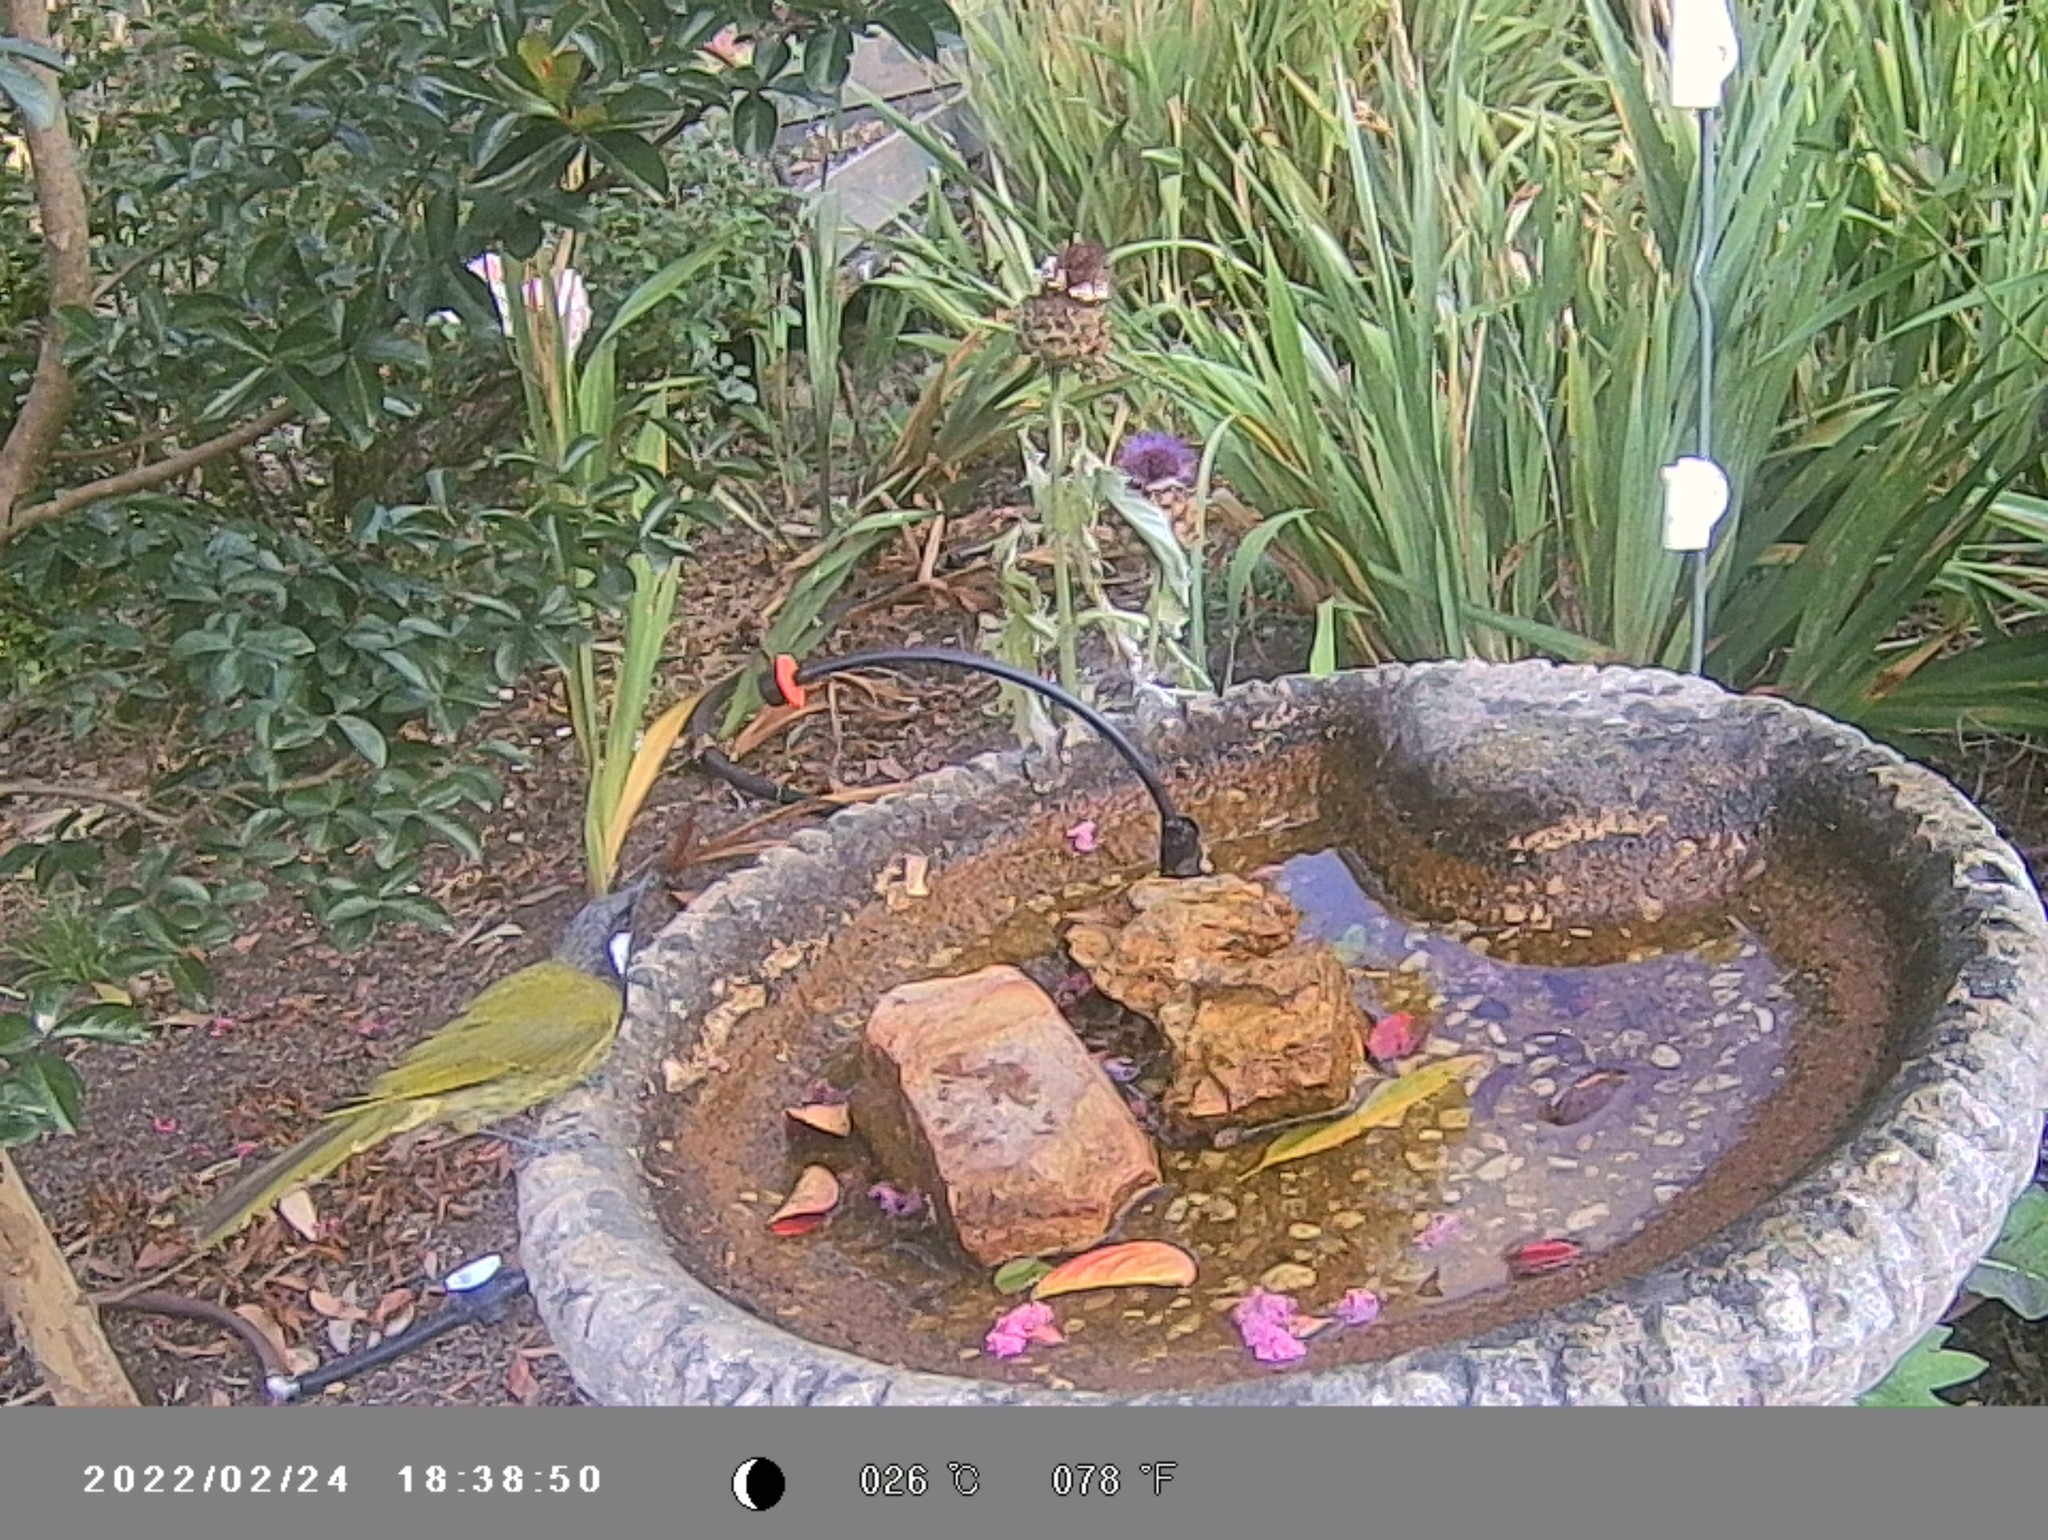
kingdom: Animalia
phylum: Chordata
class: Aves
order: Passeriformes
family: Meliphagidae
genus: Nesoptilotis
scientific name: Nesoptilotis leucotis
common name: White-eared honeyeater
